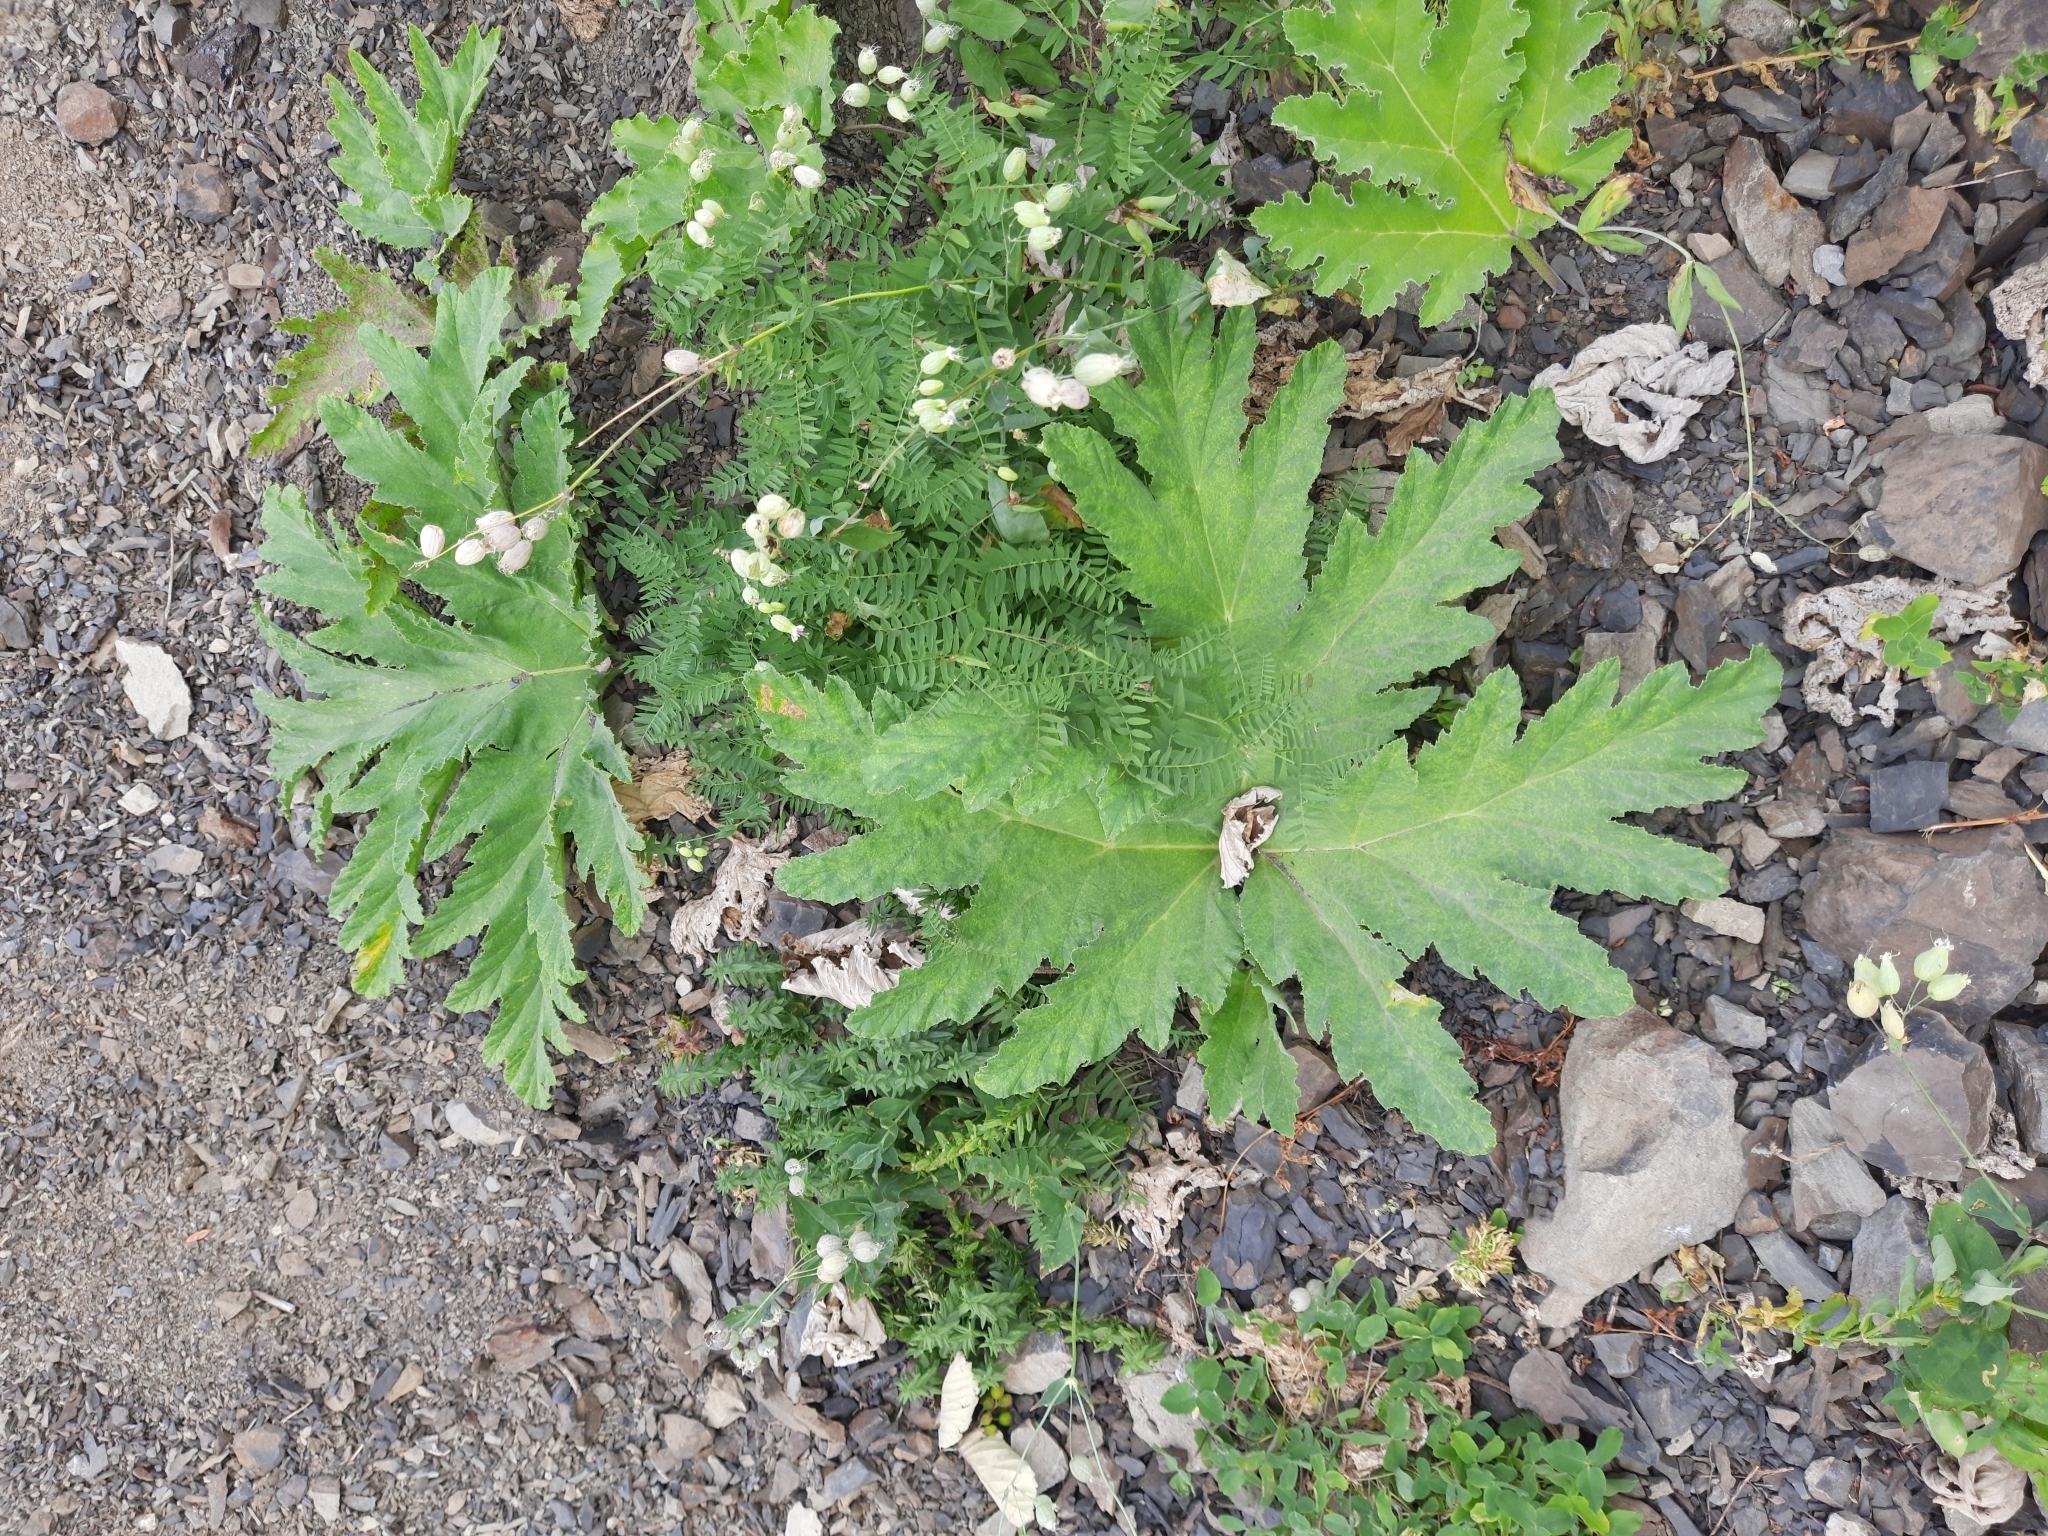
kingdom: Plantae
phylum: Tracheophyta
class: Magnoliopsida
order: Apiales
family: Apiaceae
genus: Heracleum
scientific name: Heracleum leskovii
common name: Leskov's cow-parsnip
